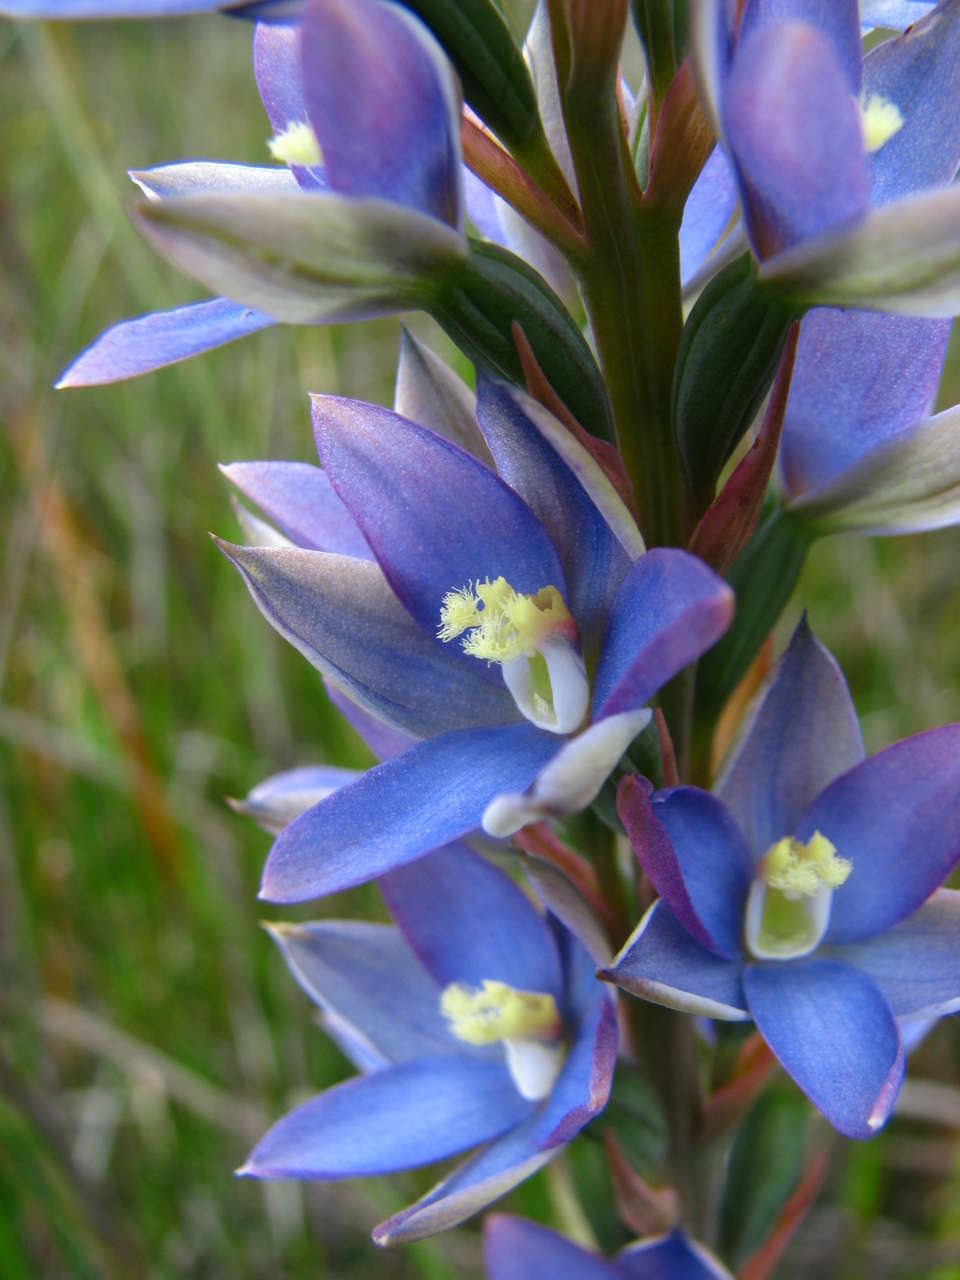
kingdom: Plantae
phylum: Tracheophyta
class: Liliopsida
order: Asparagales
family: Orchidaceae
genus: Thelymitra
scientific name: Thelymitra circumsepta
